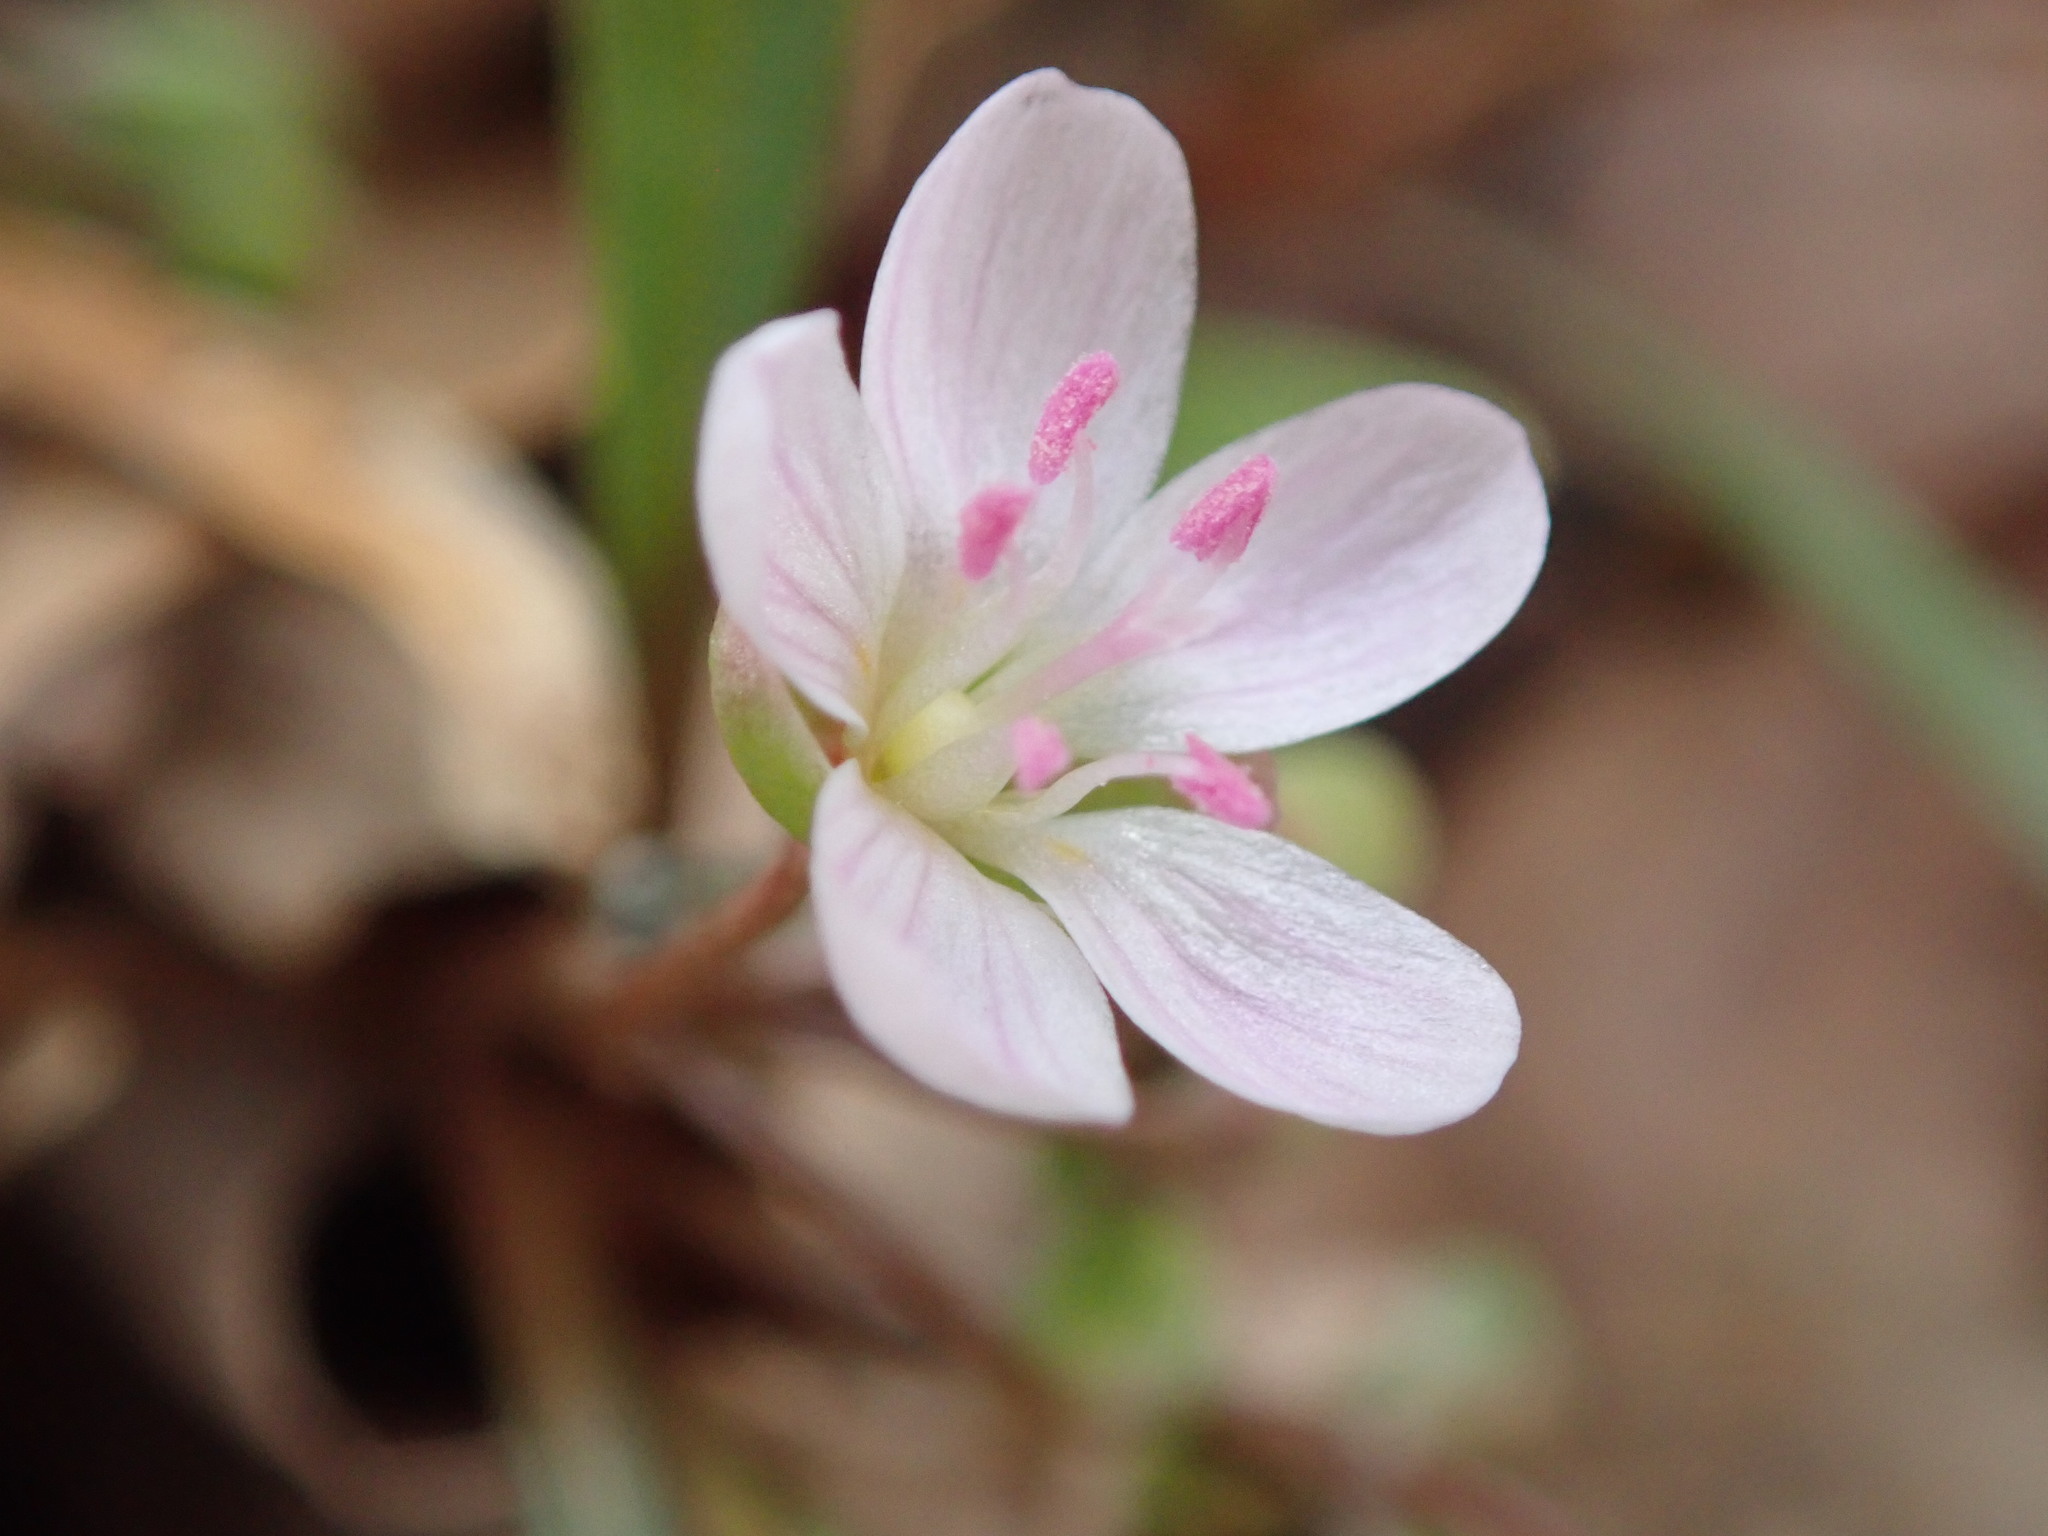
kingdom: Plantae
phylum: Tracheophyta
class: Magnoliopsida
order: Caryophyllales
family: Montiaceae
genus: Claytonia
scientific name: Claytonia virginica
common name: Virginia springbeauty
